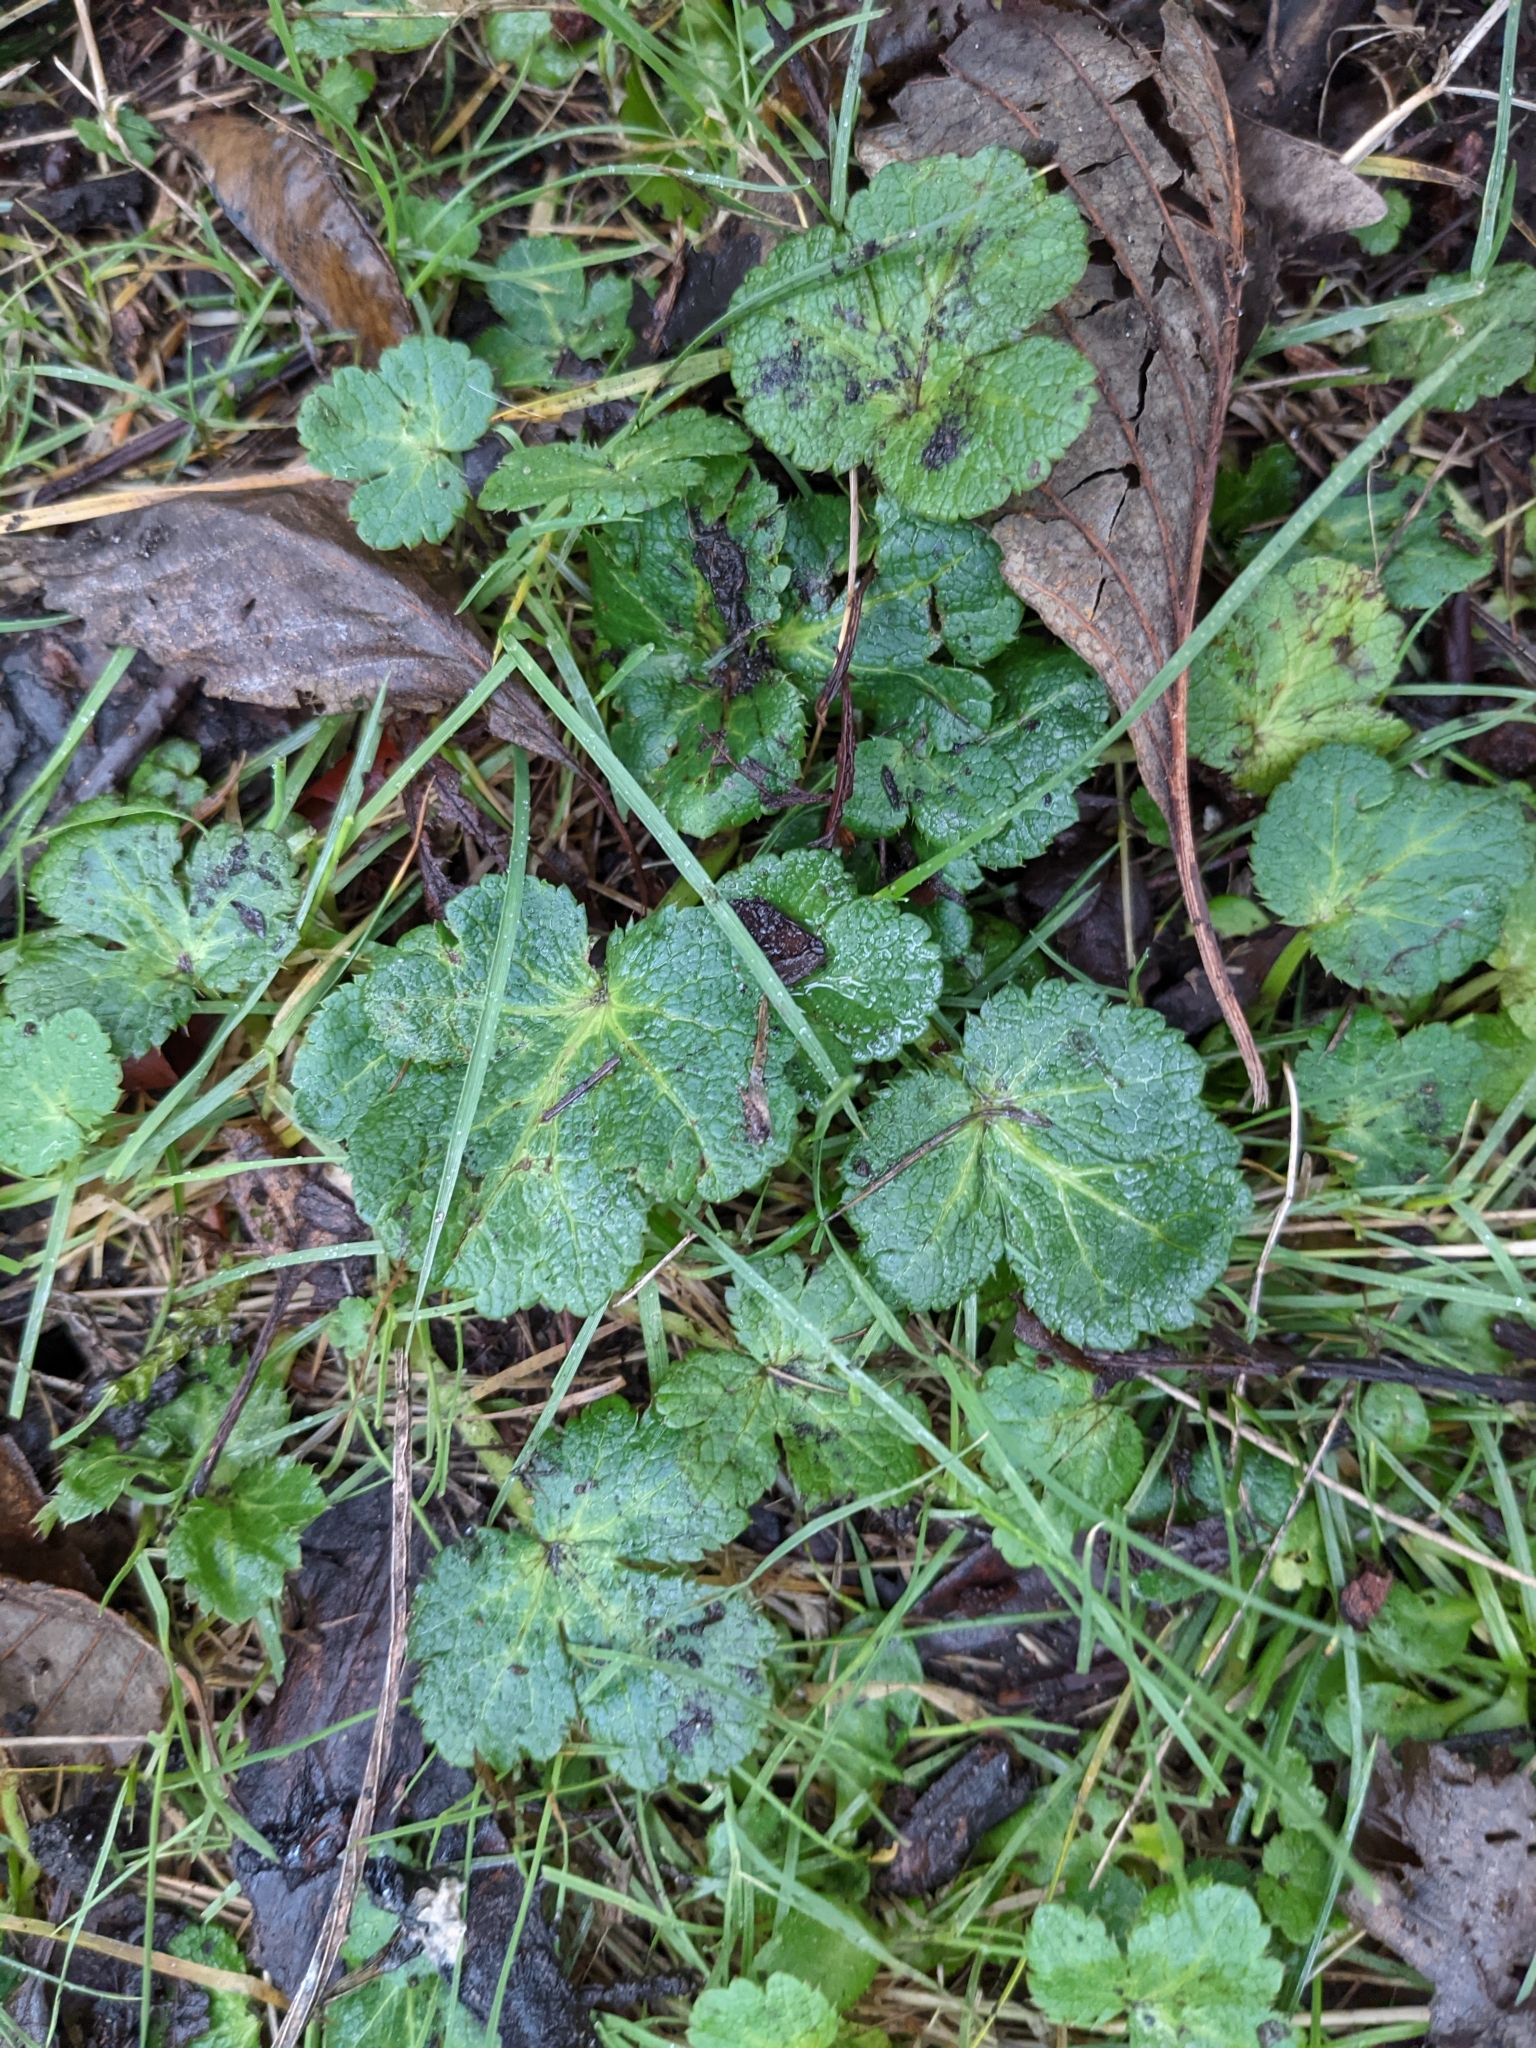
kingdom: Plantae
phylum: Tracheophyta
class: Magnoliopsida
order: Apiales
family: Apiaceae
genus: Sanicula
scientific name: Sanicula crassicaulis
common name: Western snakeroot
